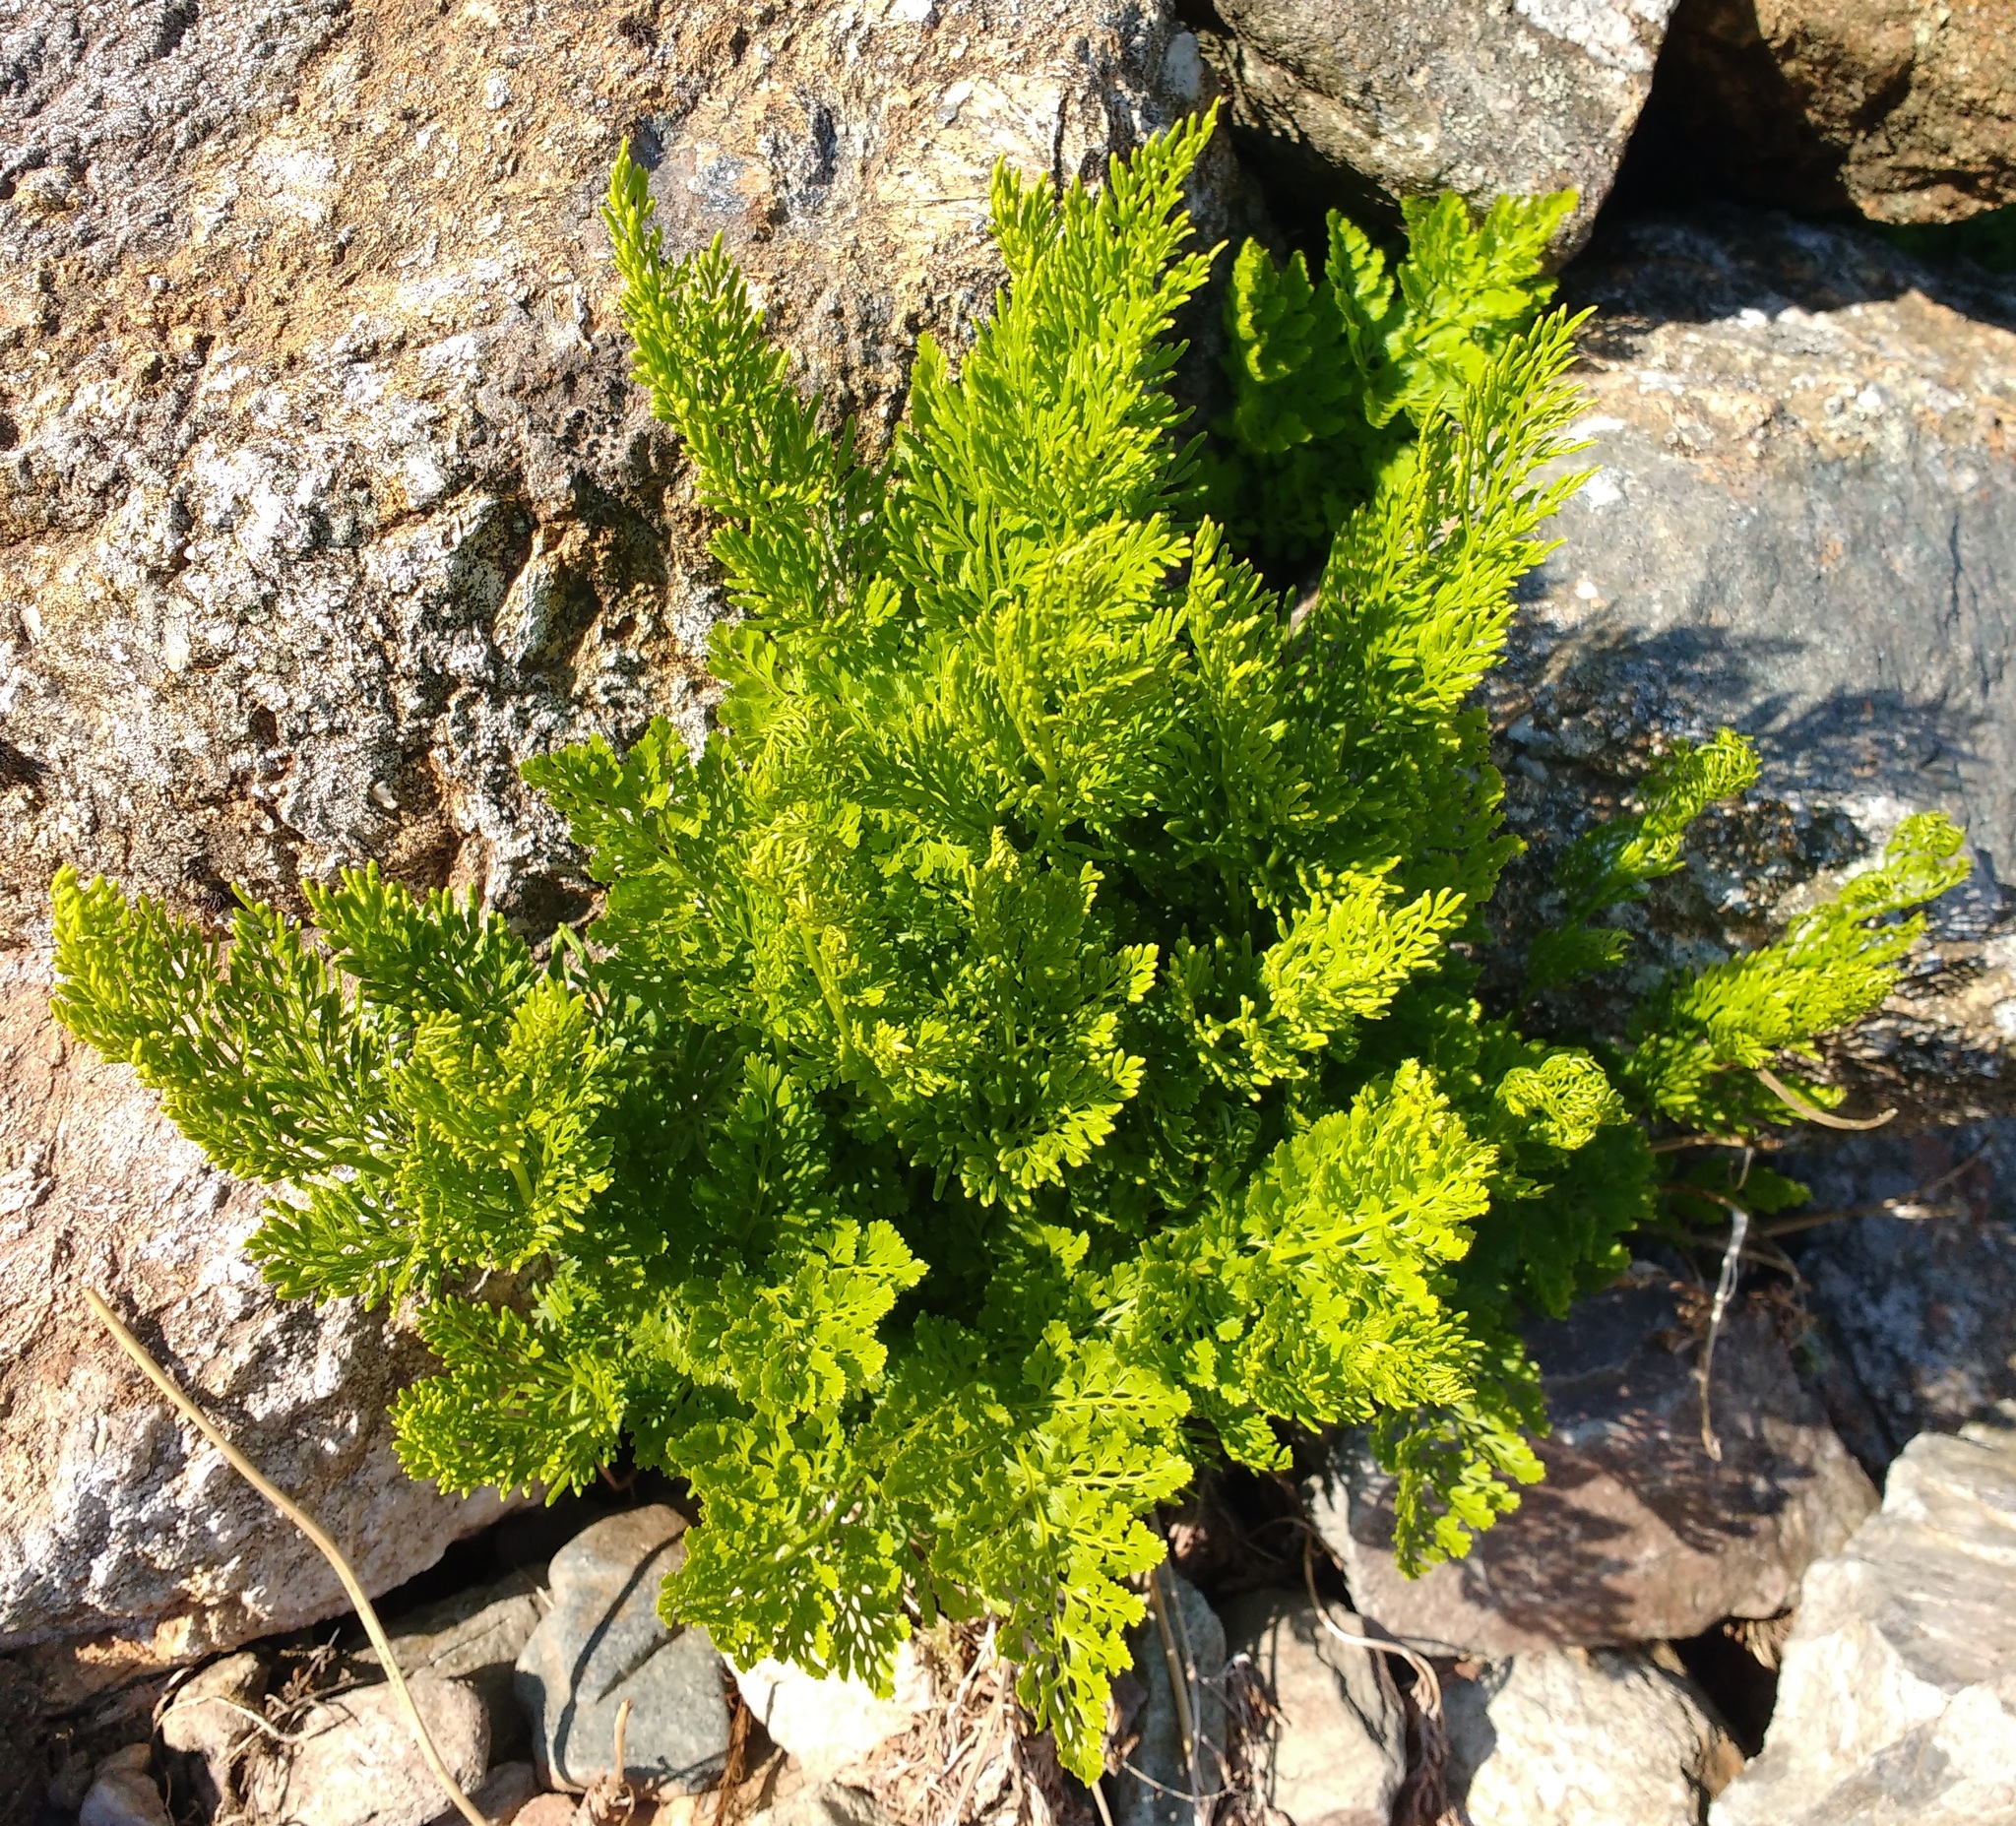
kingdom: Plantae
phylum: Tracheophyta
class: Polypodiopsida
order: Polypodiales
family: Pteridaceae
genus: Cryptogramma
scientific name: Cryptogramma crispa
